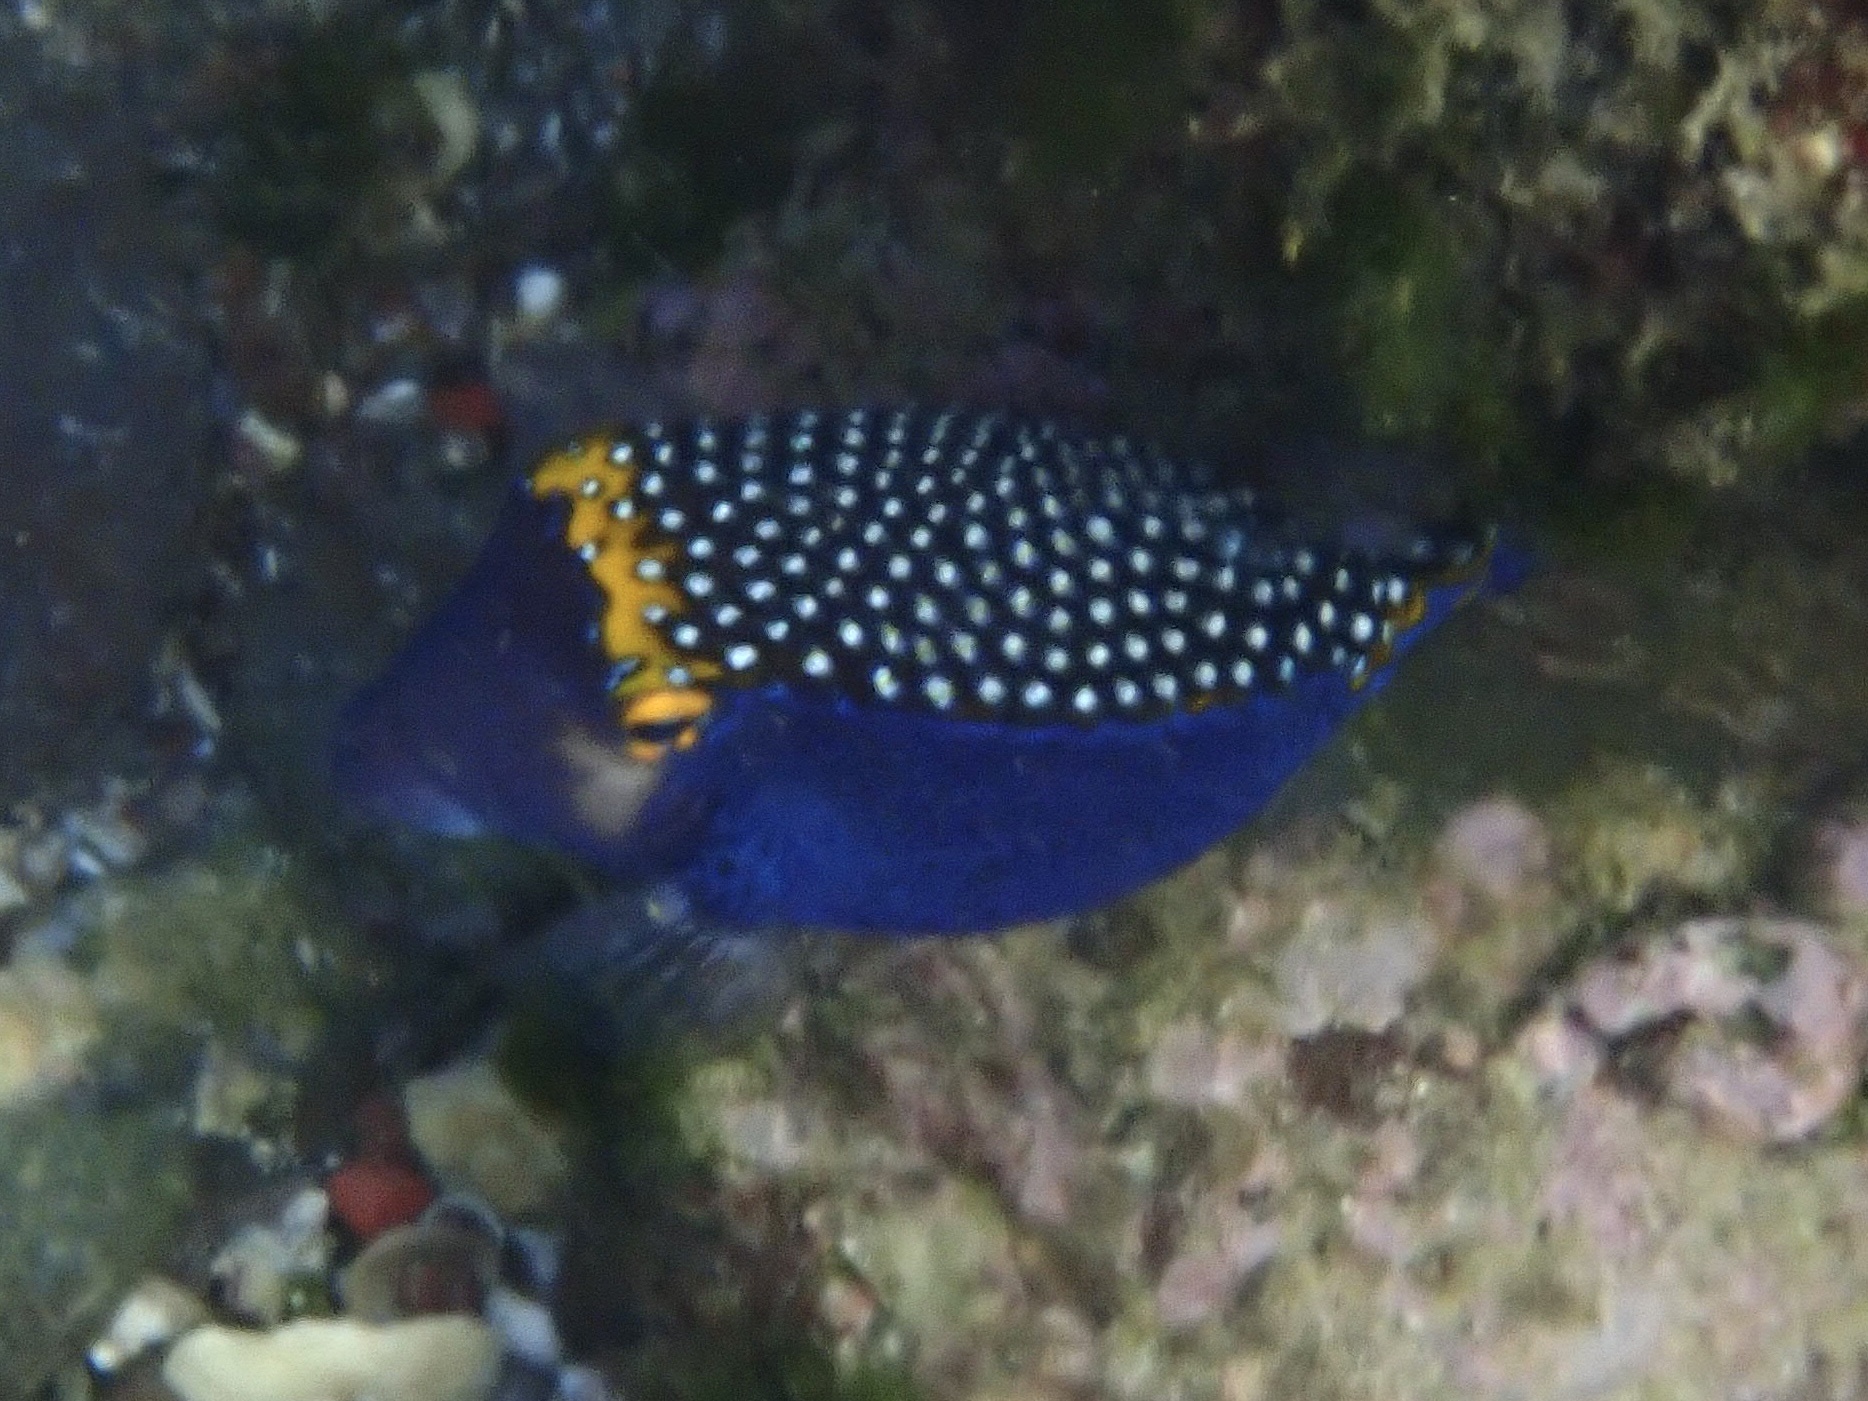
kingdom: Animalia
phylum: Chordata
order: Tetraodontiformes
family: Ostraciidae
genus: Ostracion
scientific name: Ostracion meleagris
